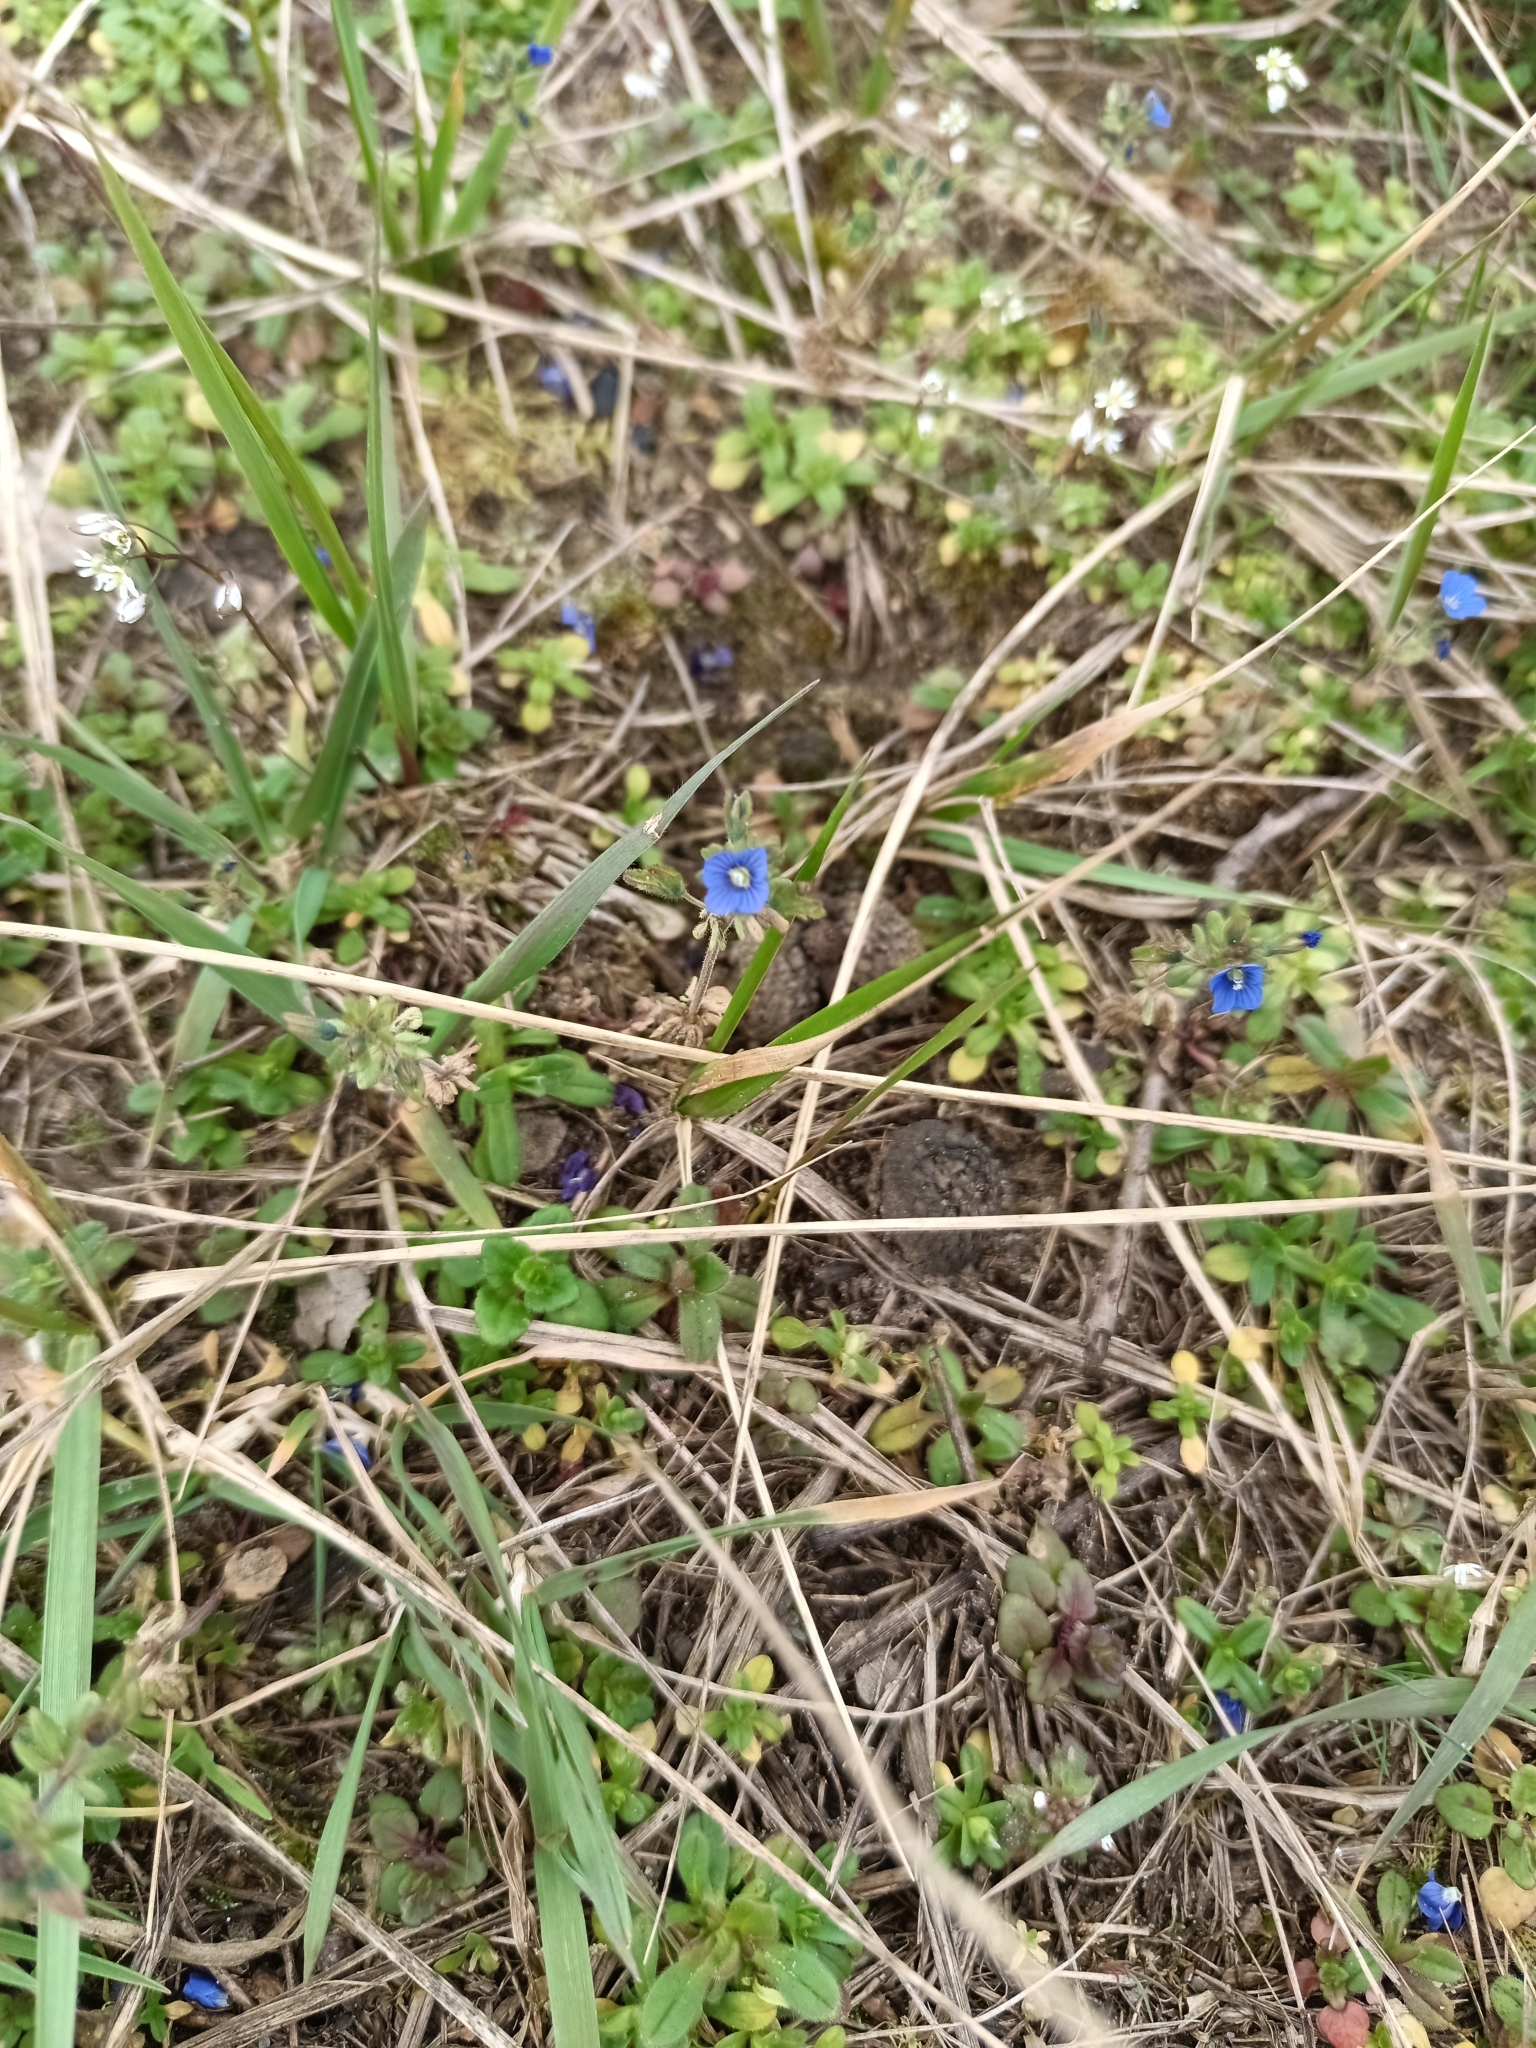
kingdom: Plantae
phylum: Tracheophyta
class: Magnoliopsida
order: Lamiales
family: Plantaginaceae
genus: Veronica
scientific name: Veronica triphyllos
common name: Fingered speedwell
